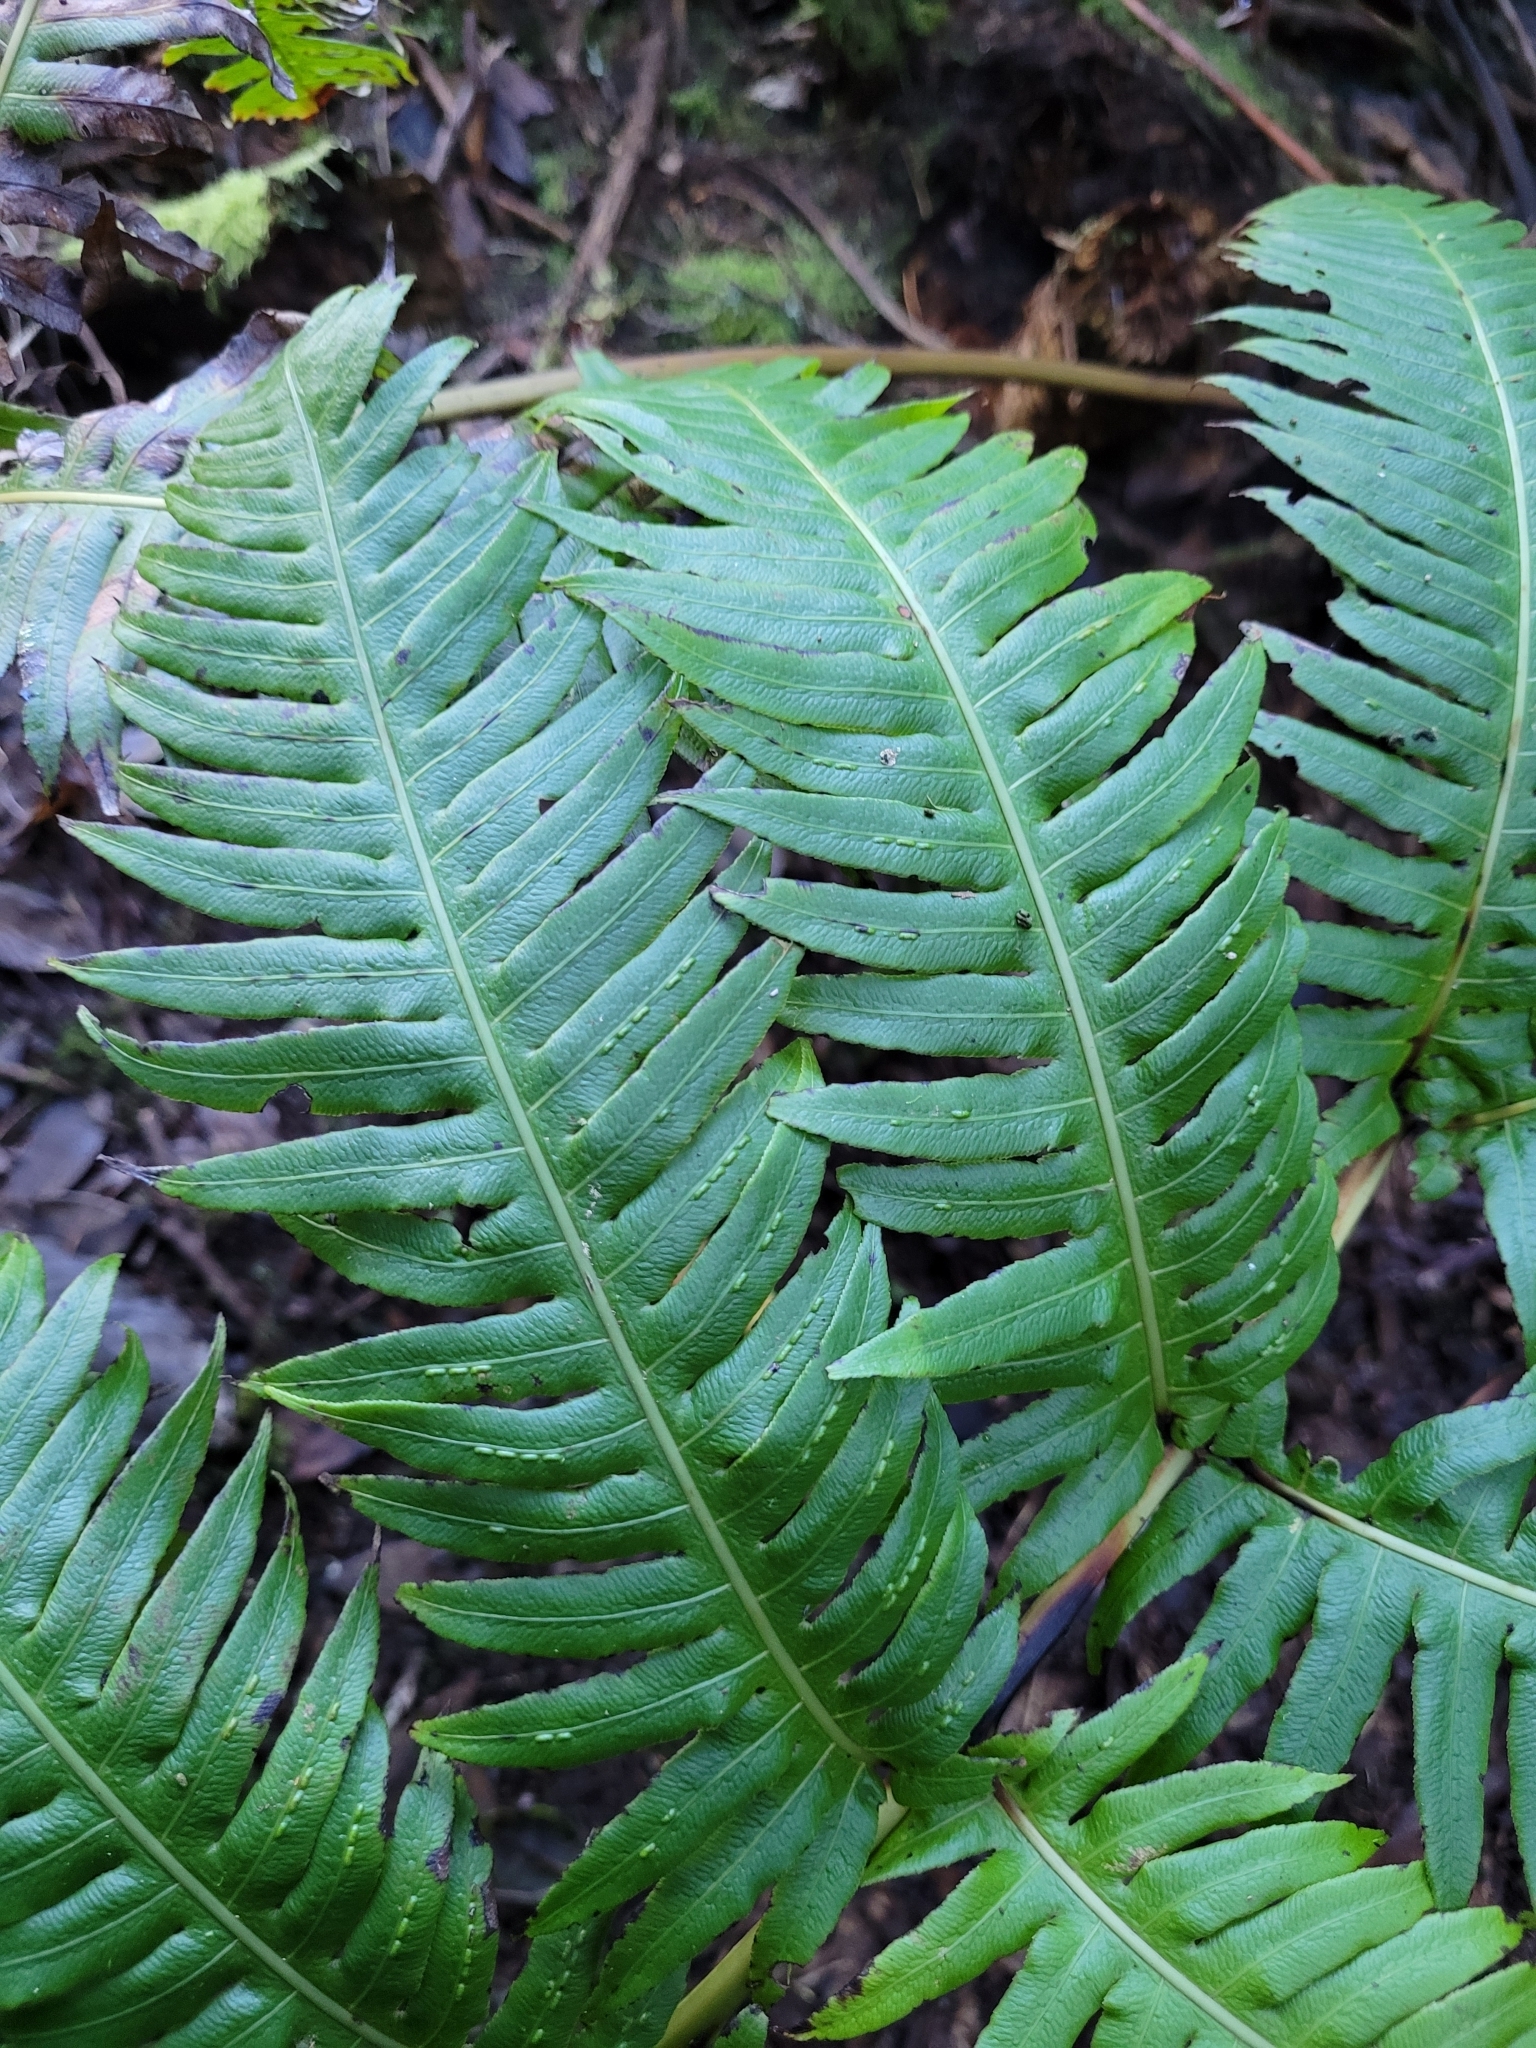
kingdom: Plantae
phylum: Tracheophyta
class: Polypodiopsida
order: Polypodiales
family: Blechnaceae
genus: Woodwardia
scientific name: Woodwardia radicans
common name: Rooting chainfern
